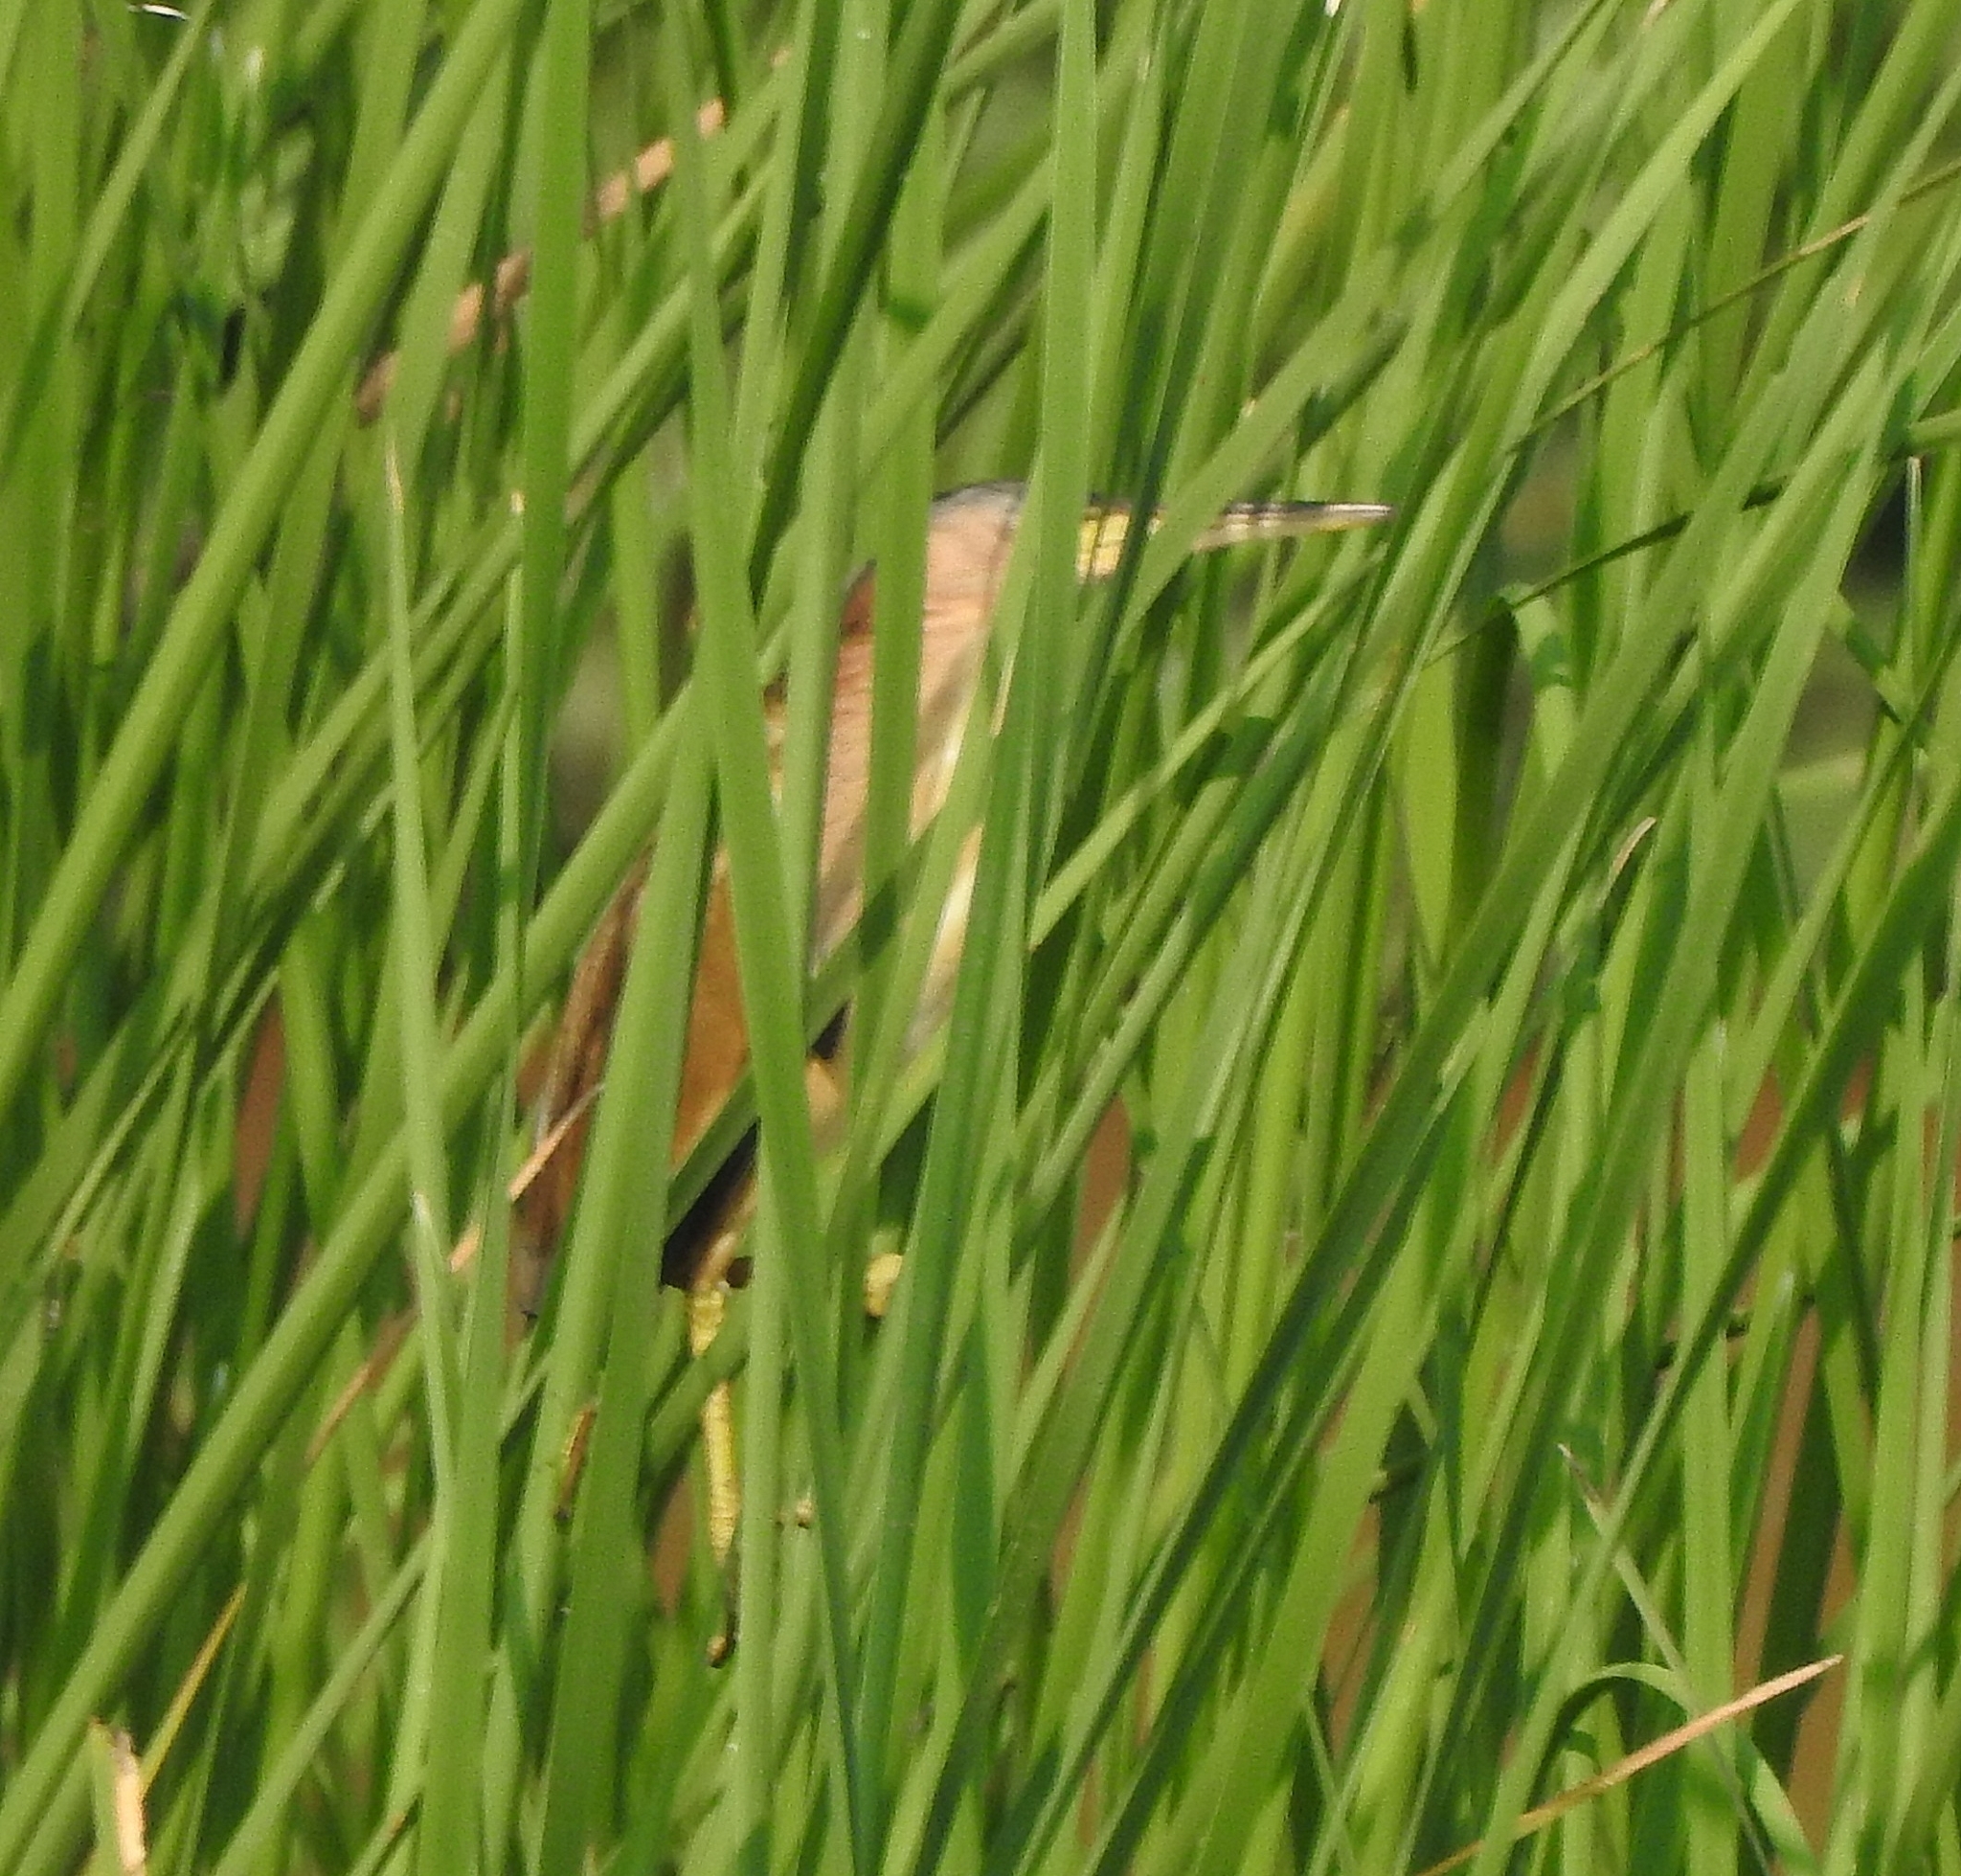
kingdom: Animalia
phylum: Chordata
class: Aves
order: Pelecaniformes
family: Ardeidae
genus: Ixobrychus
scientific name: Ixobrychus sinensis
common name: Yellow bittern
